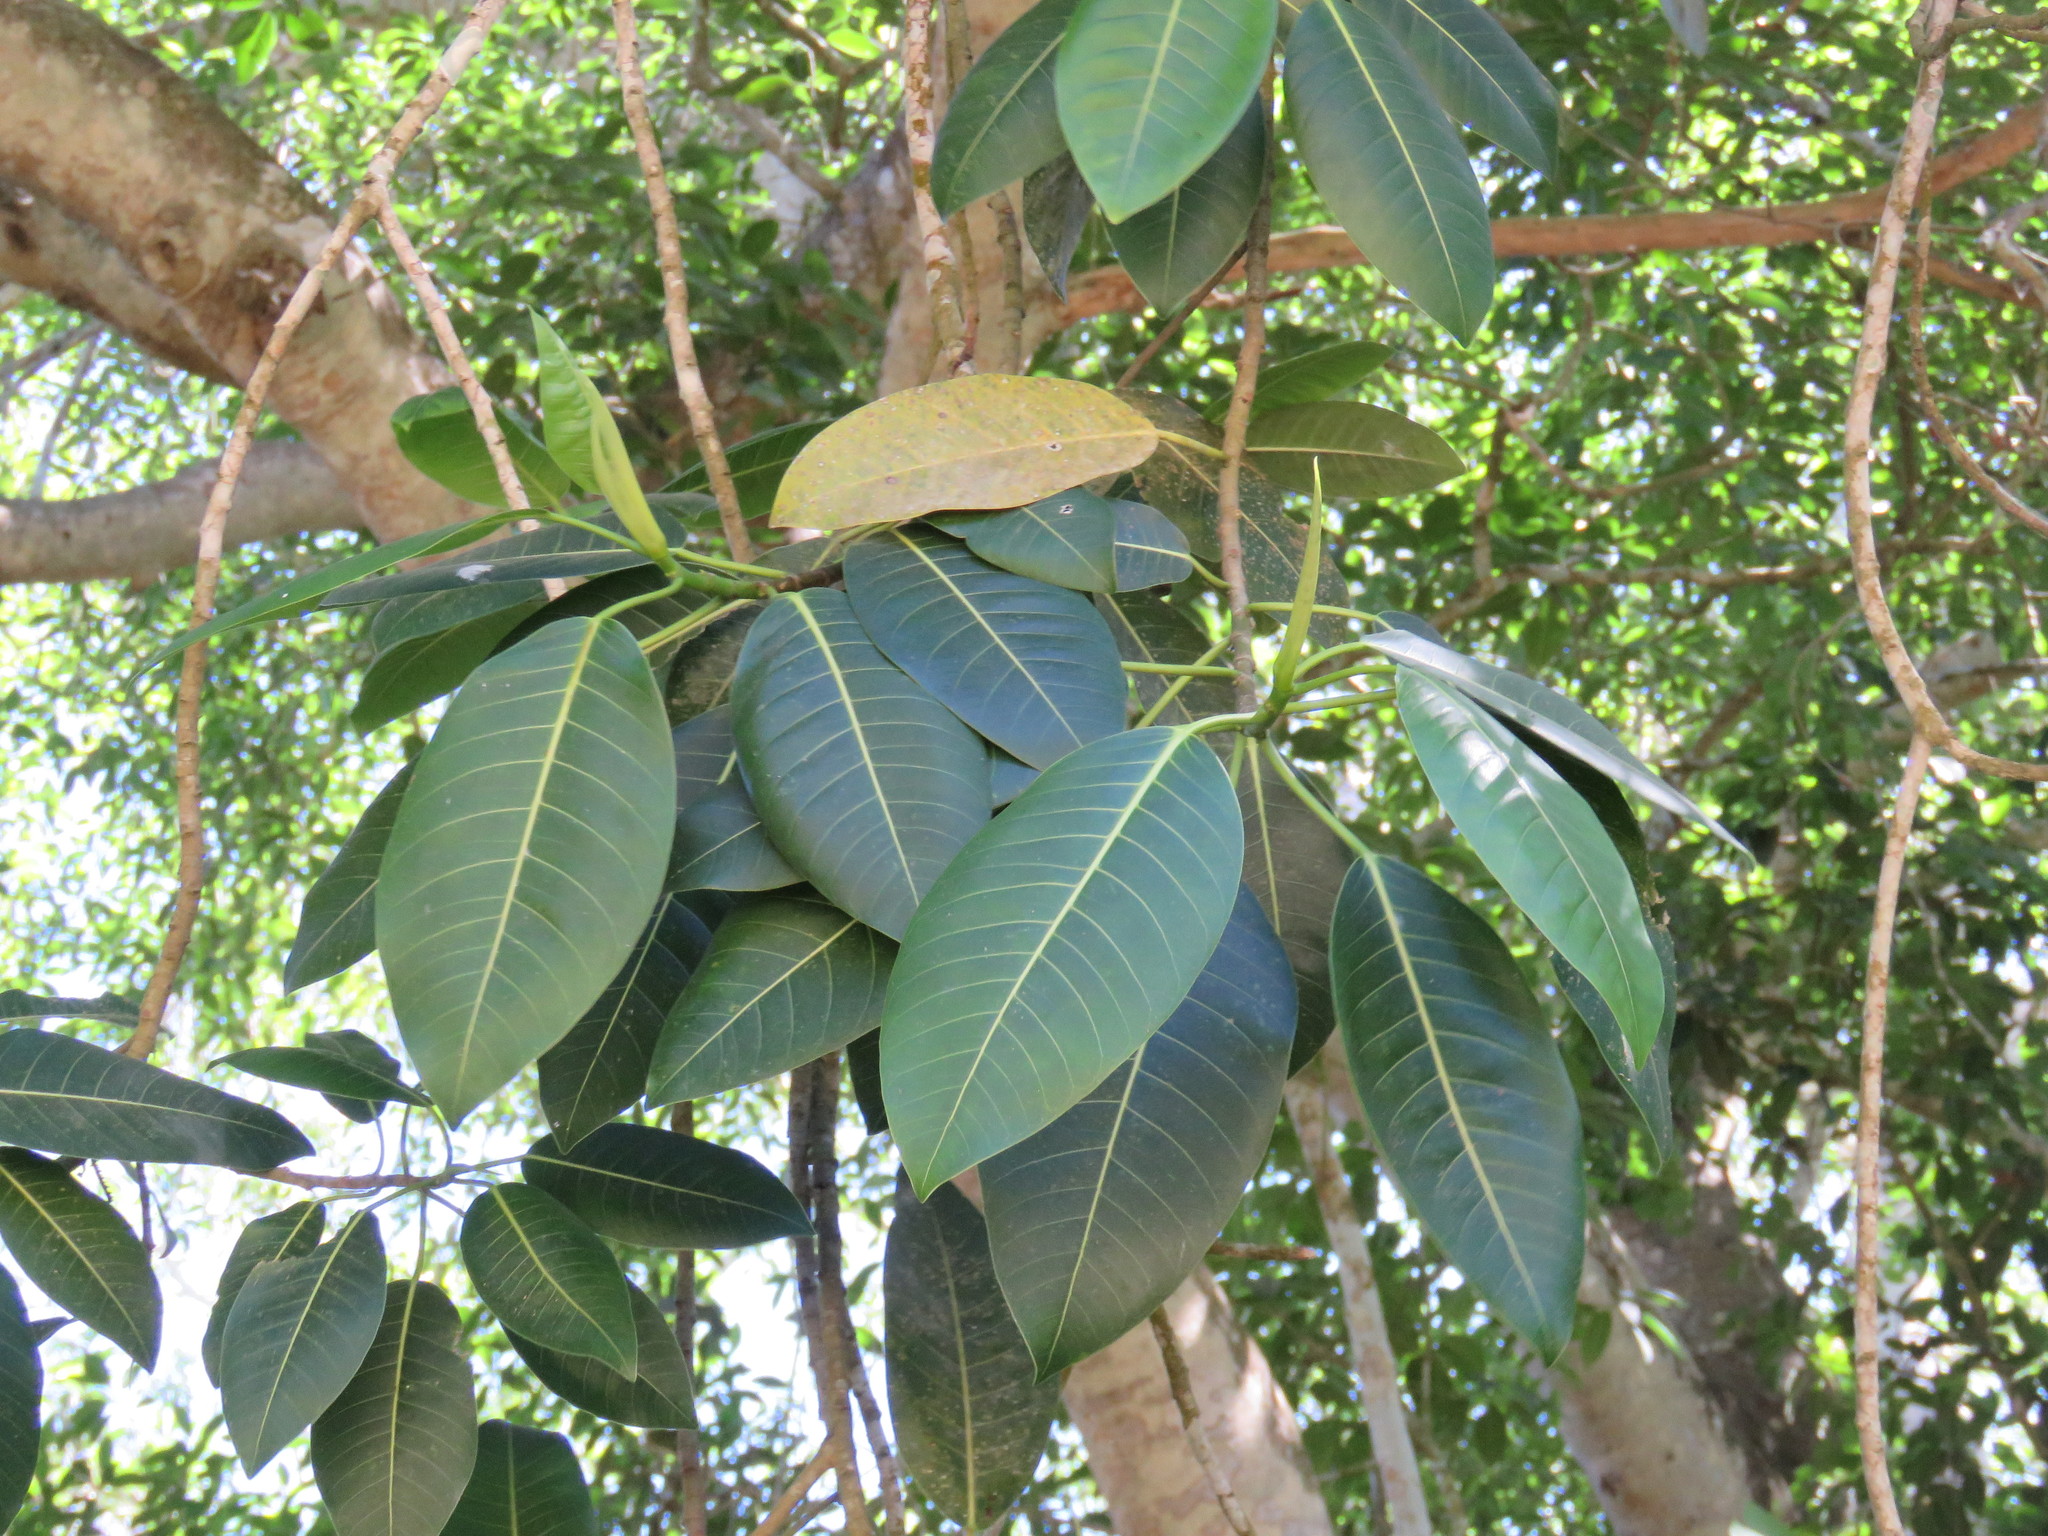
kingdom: Plantae
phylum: Tracheophyta
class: Magnoliopsida
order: Rosales
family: Moraceae
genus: Ficus
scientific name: Ficus insipida
